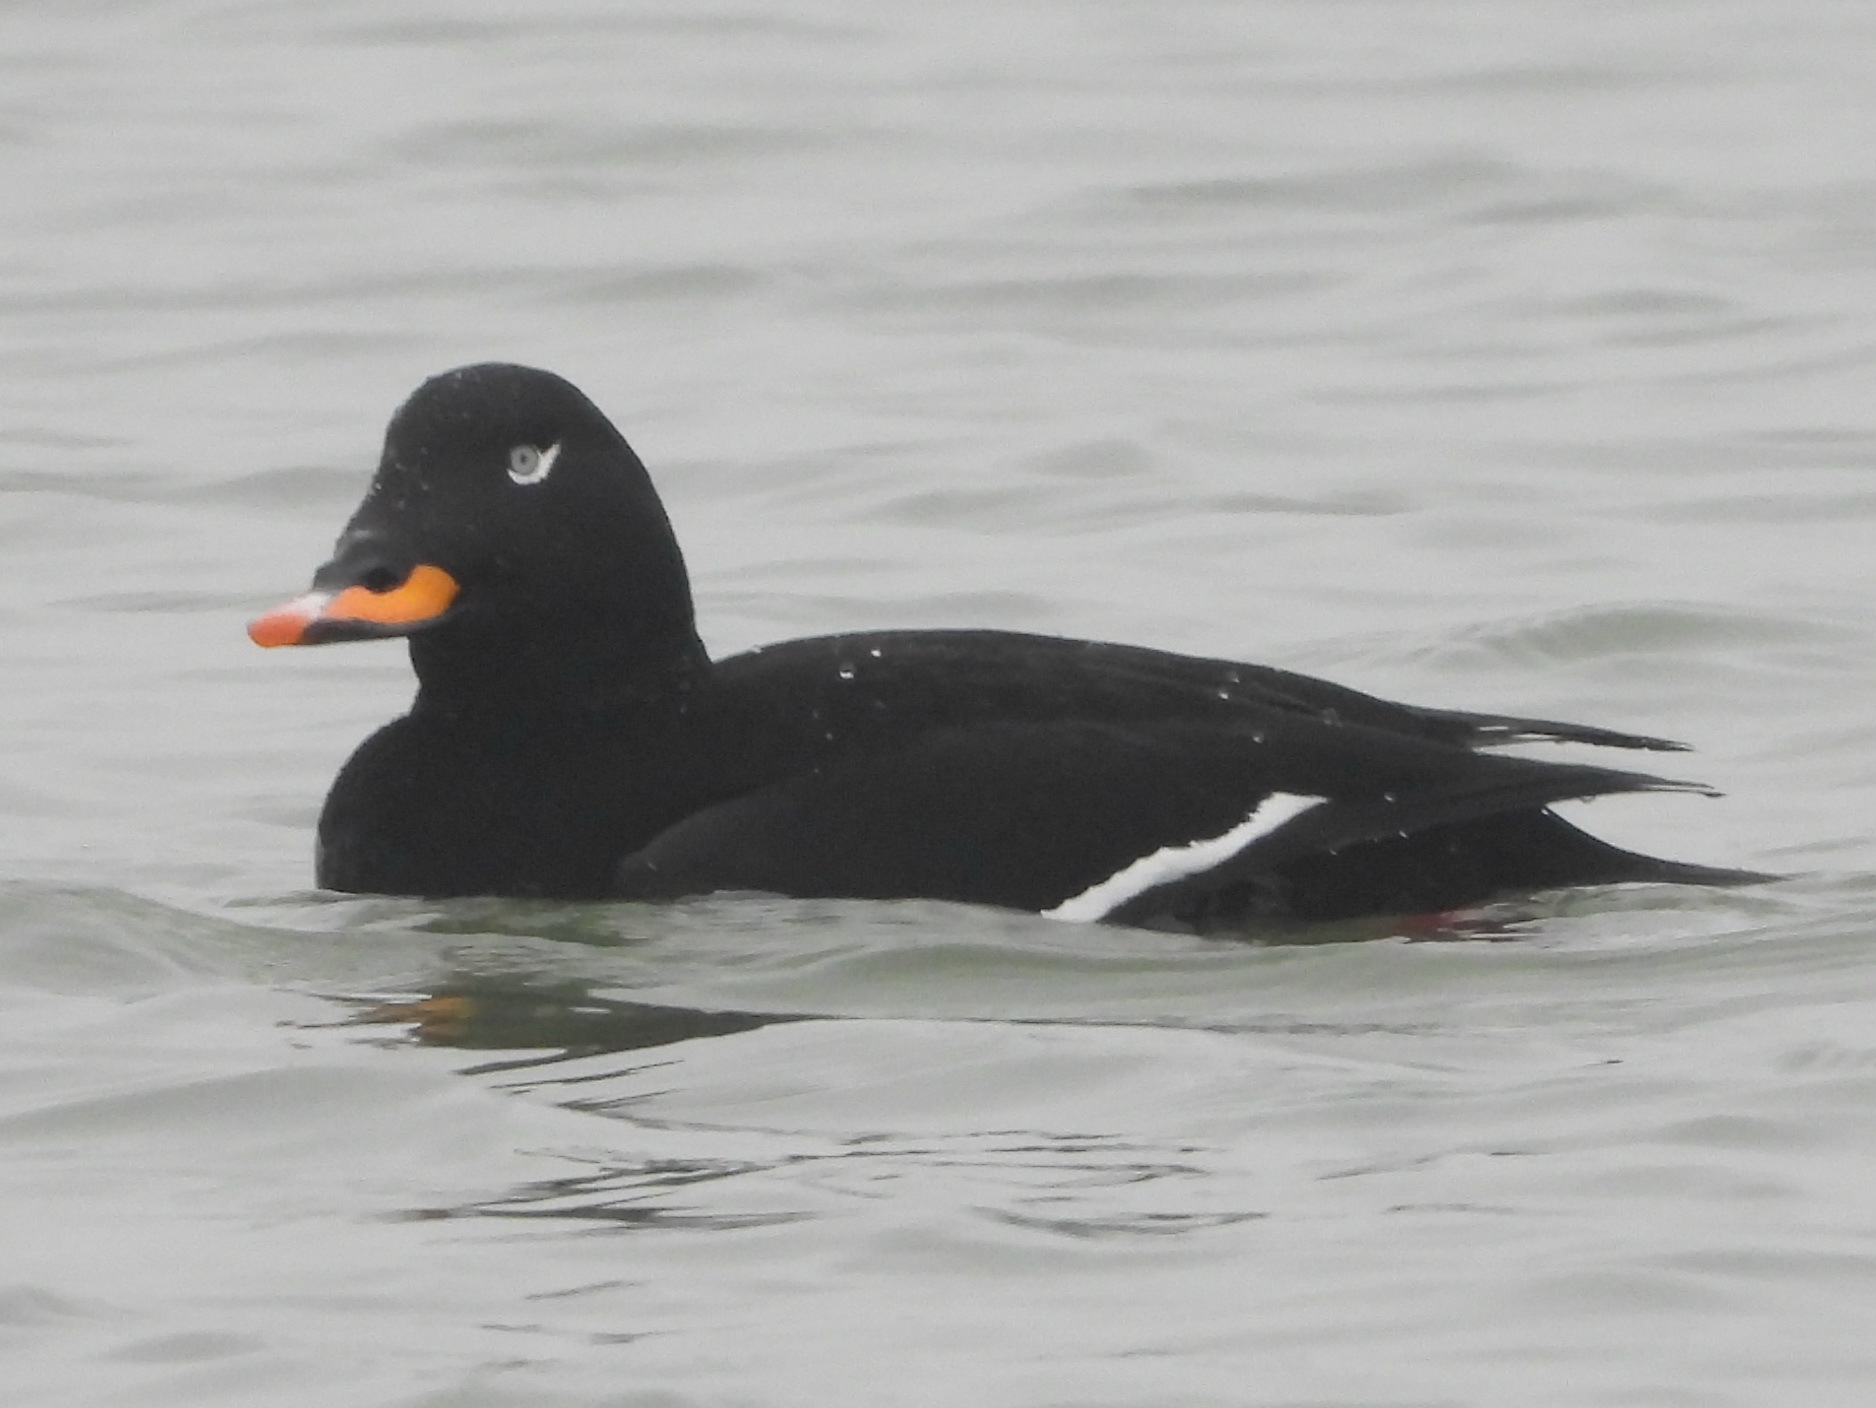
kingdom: Animalia
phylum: Chordata
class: Aves
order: Anseriformes
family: Anatidae
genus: Melanitta
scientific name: Melanitta fusca
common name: Velvet scoter
